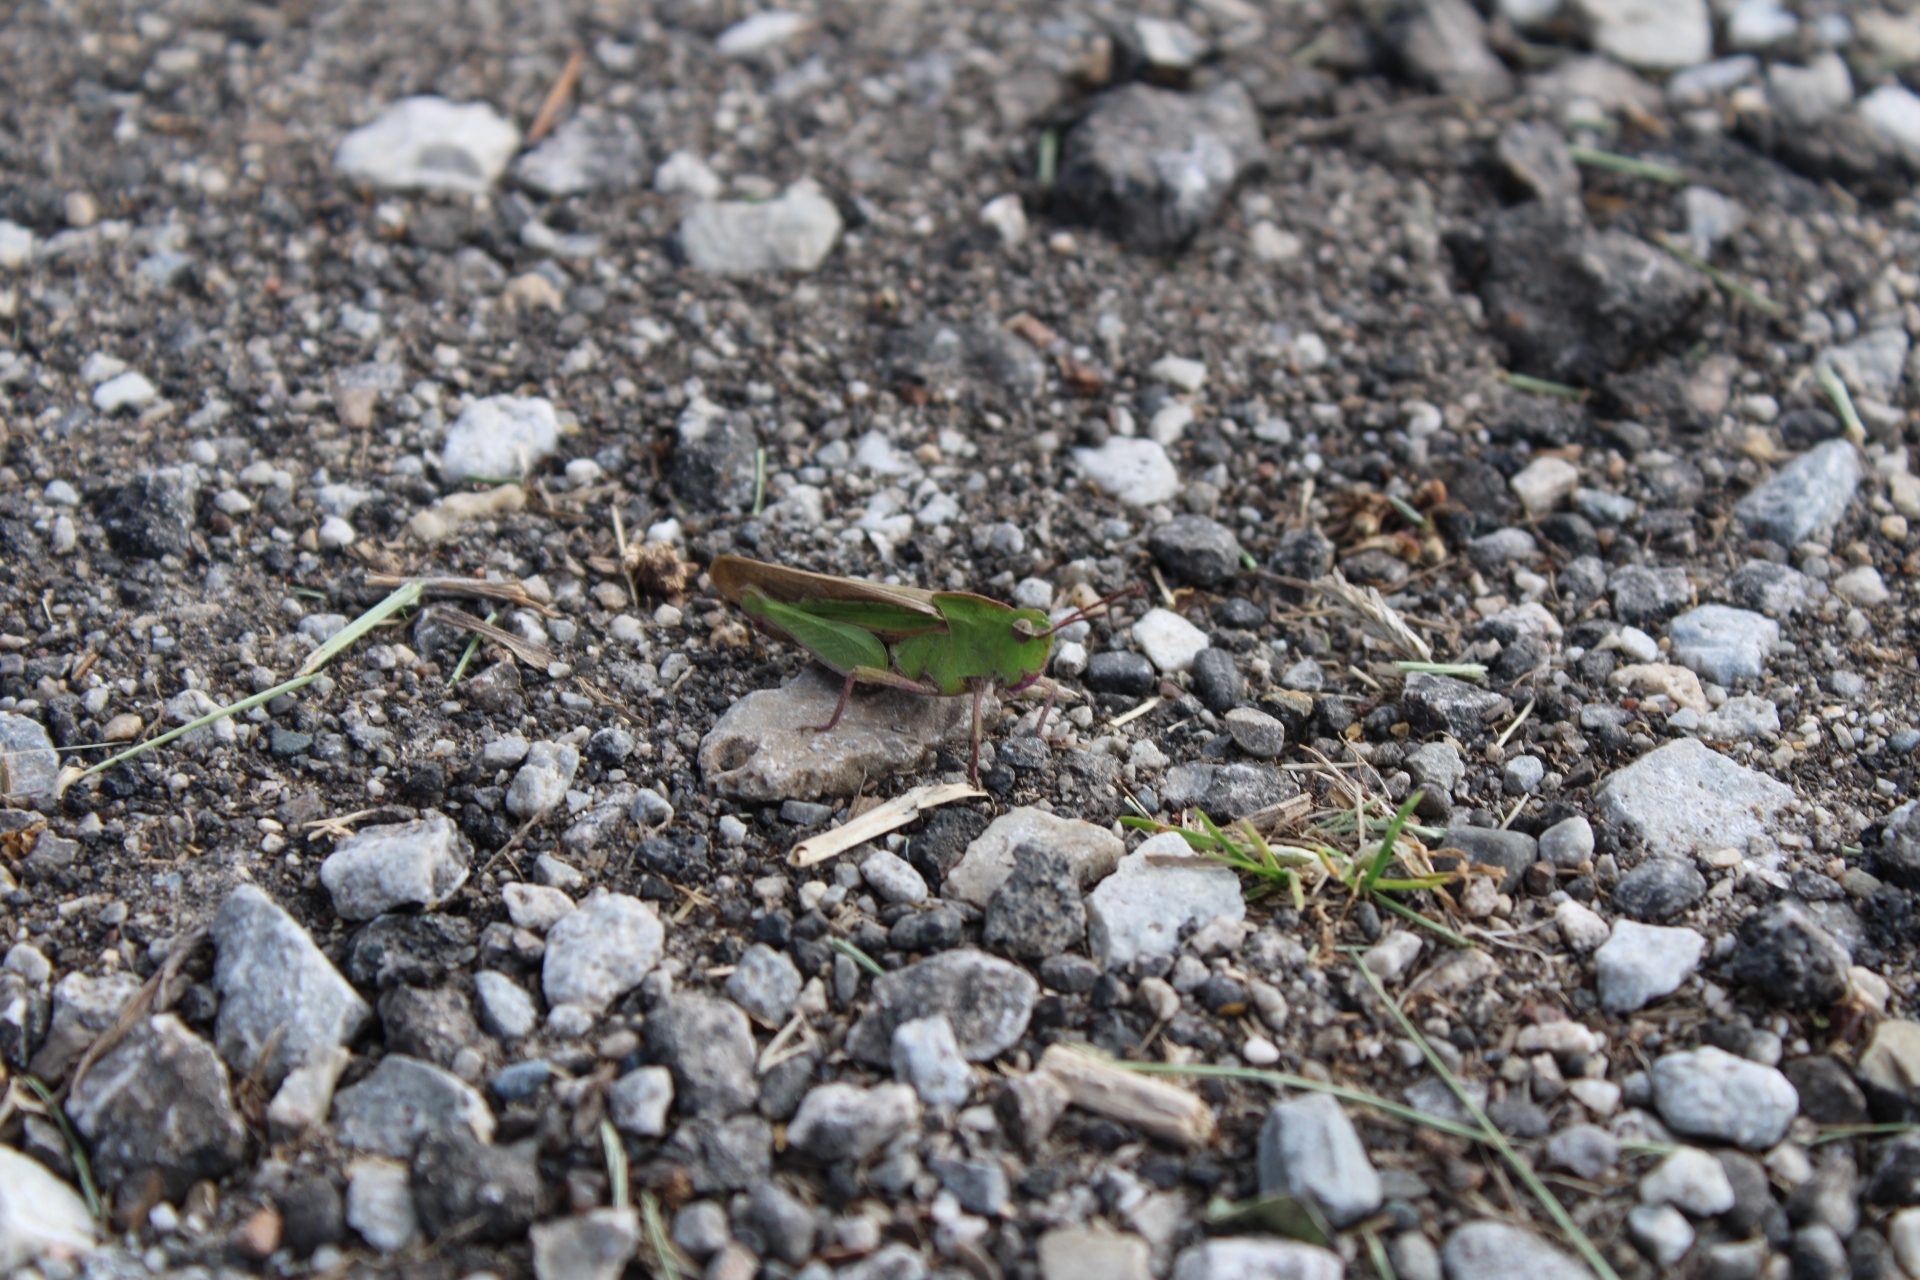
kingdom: Animalia
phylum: Arthropoda
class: Insecta
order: Orthoptera
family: Acrididae
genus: Chortophaga
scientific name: Chortophaga viridifasciata
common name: Green-striped grasshopper
